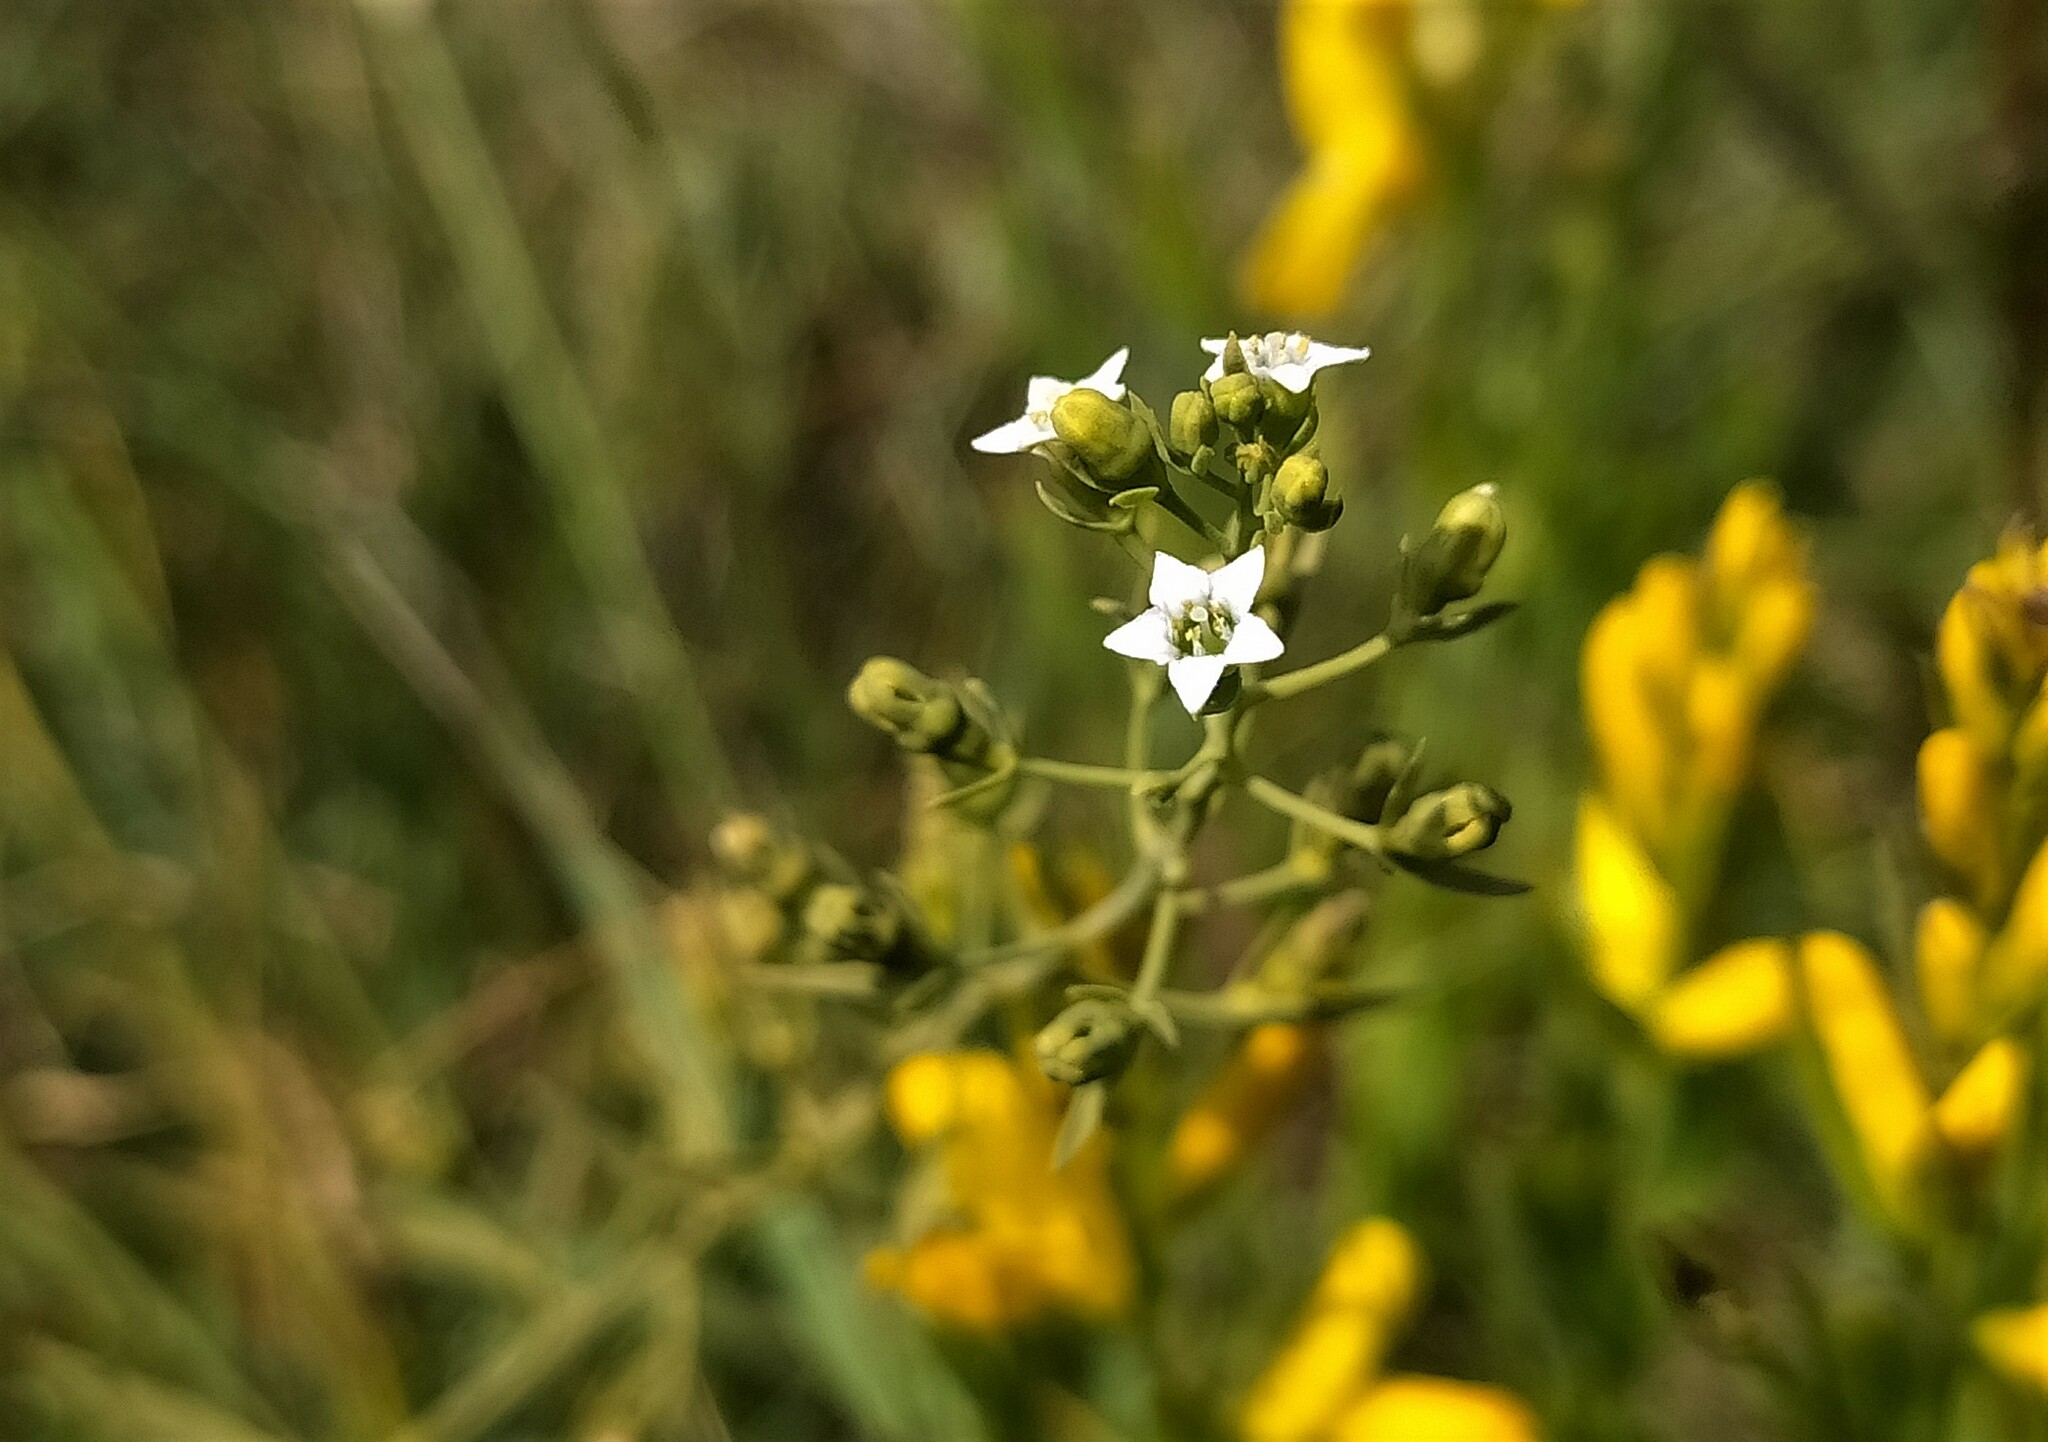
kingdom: Plantae
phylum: Tracheophyta
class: Magnoliopsida
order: Santalales
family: Thesiaceae
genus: Thesium
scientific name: Thesium pyrenaicum
